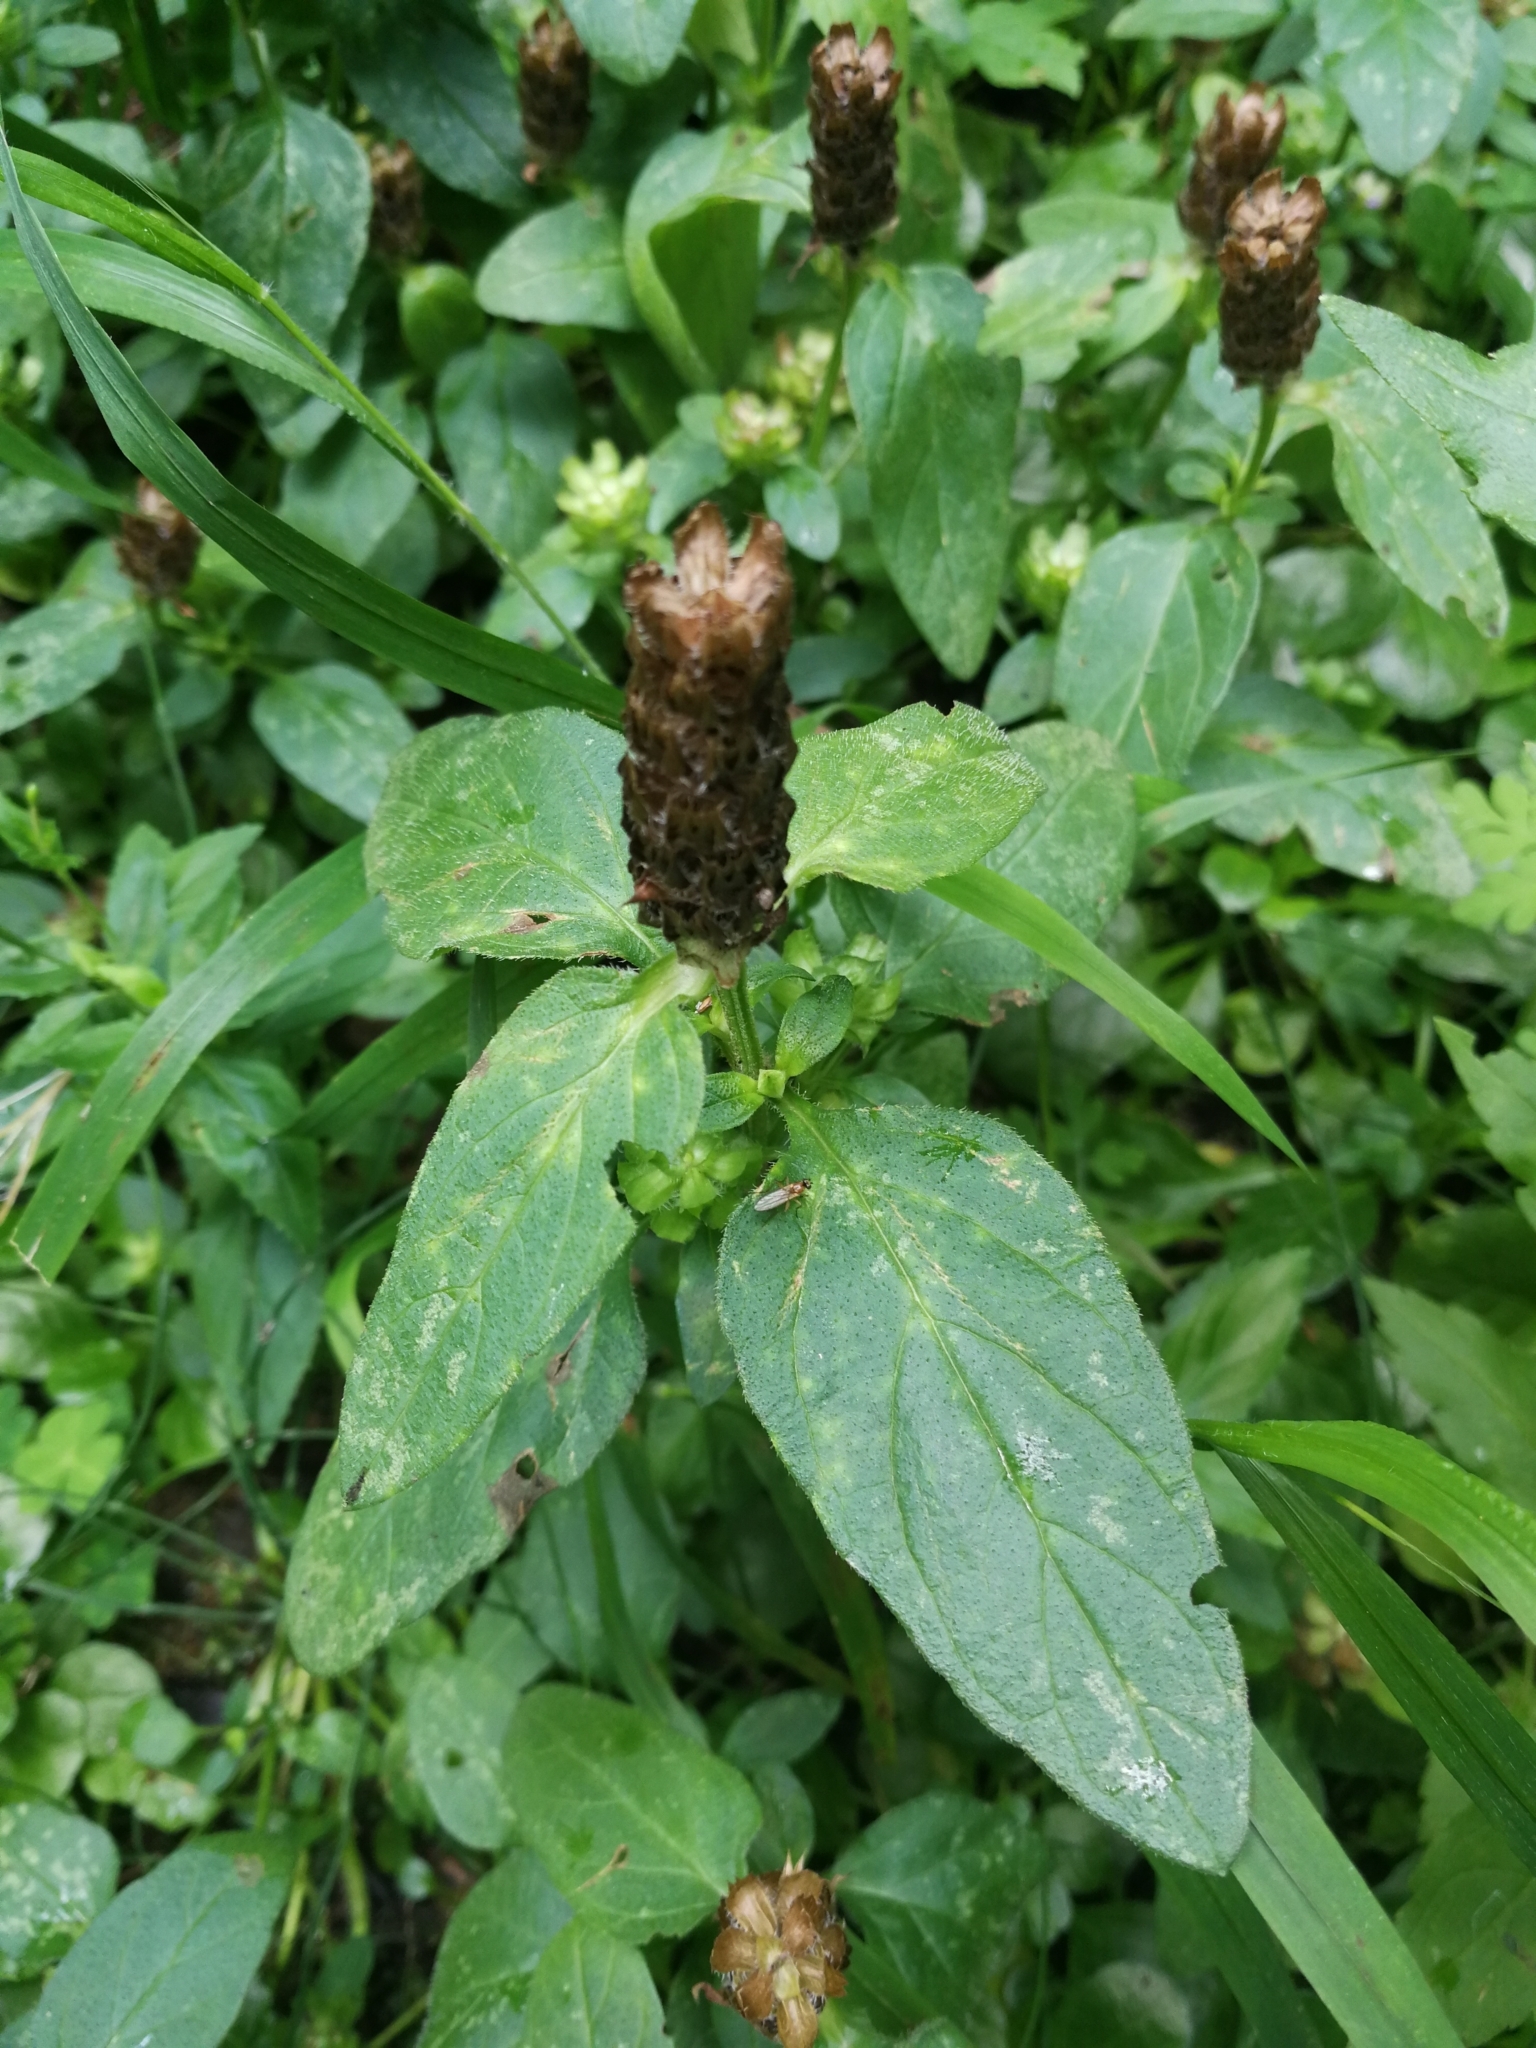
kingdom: Plantae
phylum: Tracheophyta
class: Magnoliopsida
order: Lamiales
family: Lamiaceae
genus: Prunella
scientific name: Prunella vulgaris
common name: Heal-all
